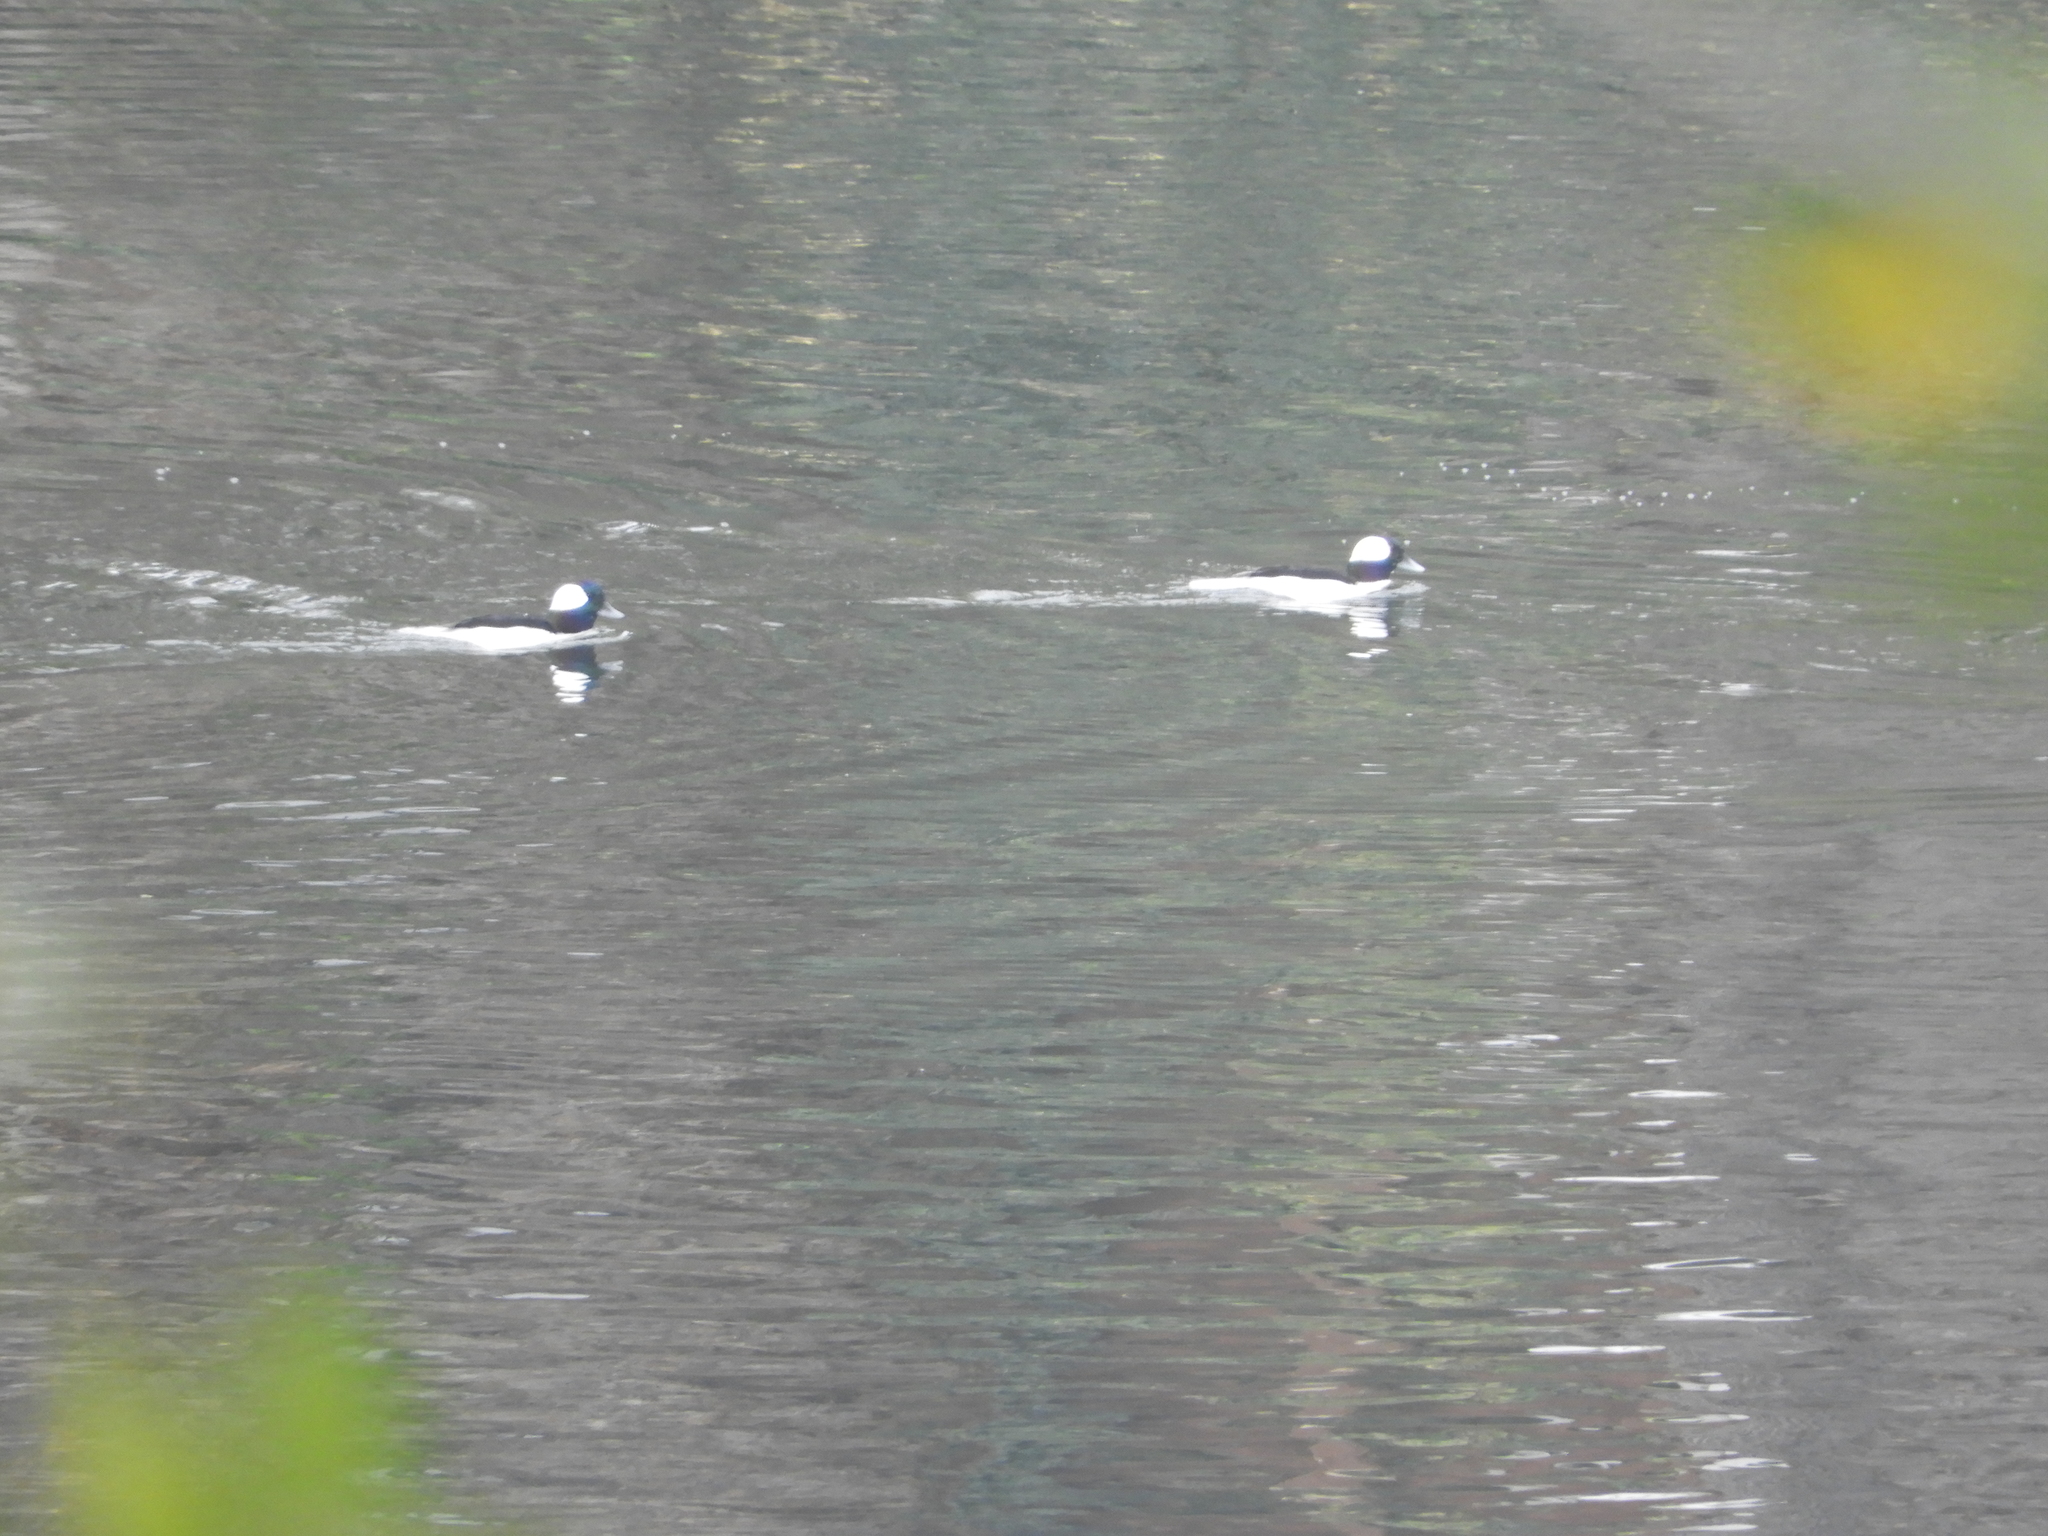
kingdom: Animalia
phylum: Chordata
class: Aves
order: Anseriformes
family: Anatidae
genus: Bucephala
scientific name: Bucephala albeola
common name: Bufflehead
